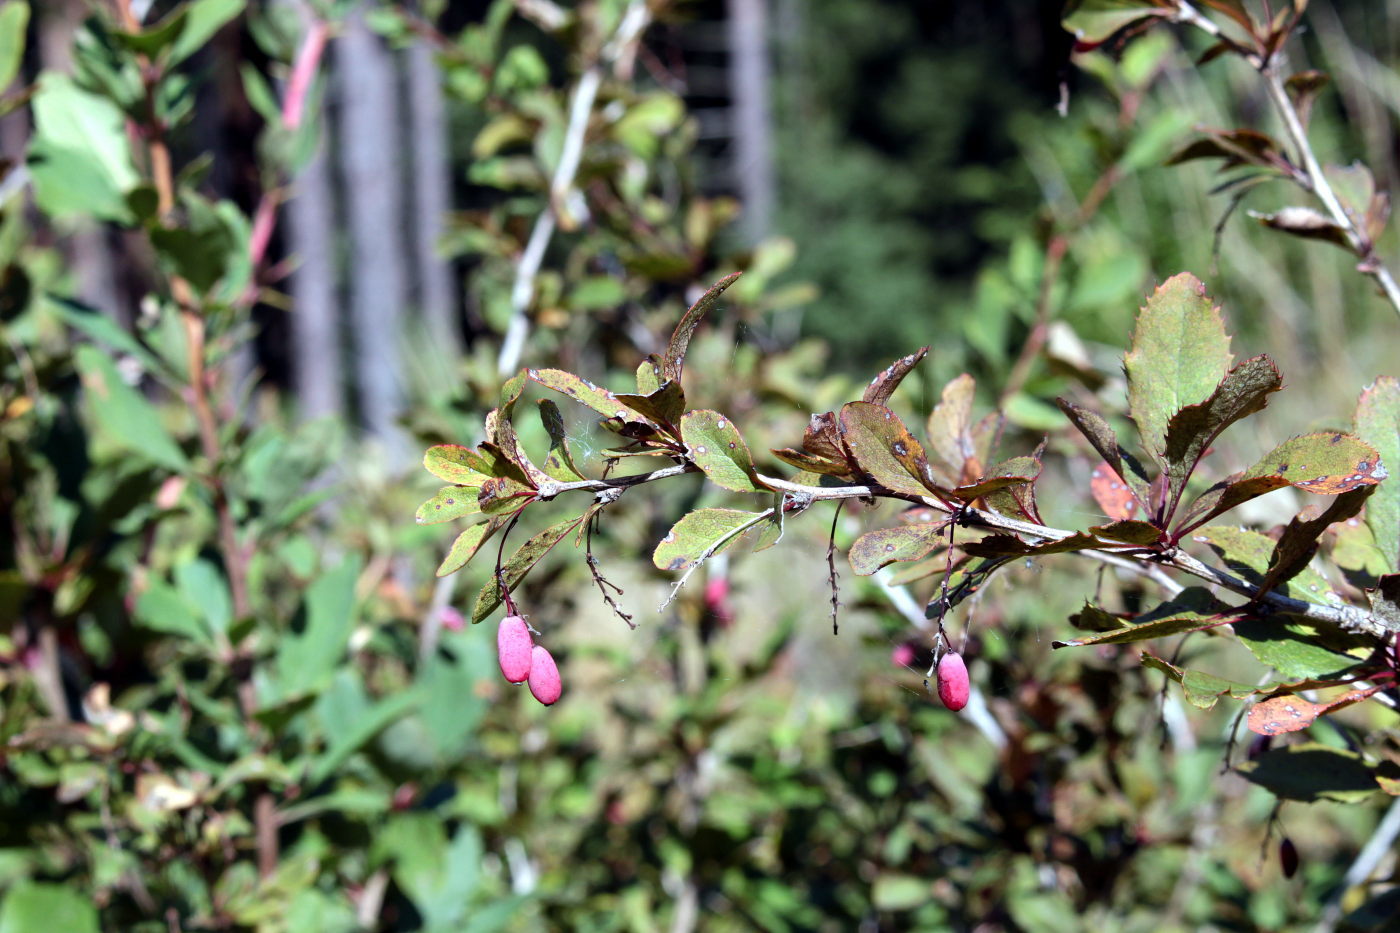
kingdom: Plantae
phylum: Tracheophyta
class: Magnoliopsida
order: Ranunculales
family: Berberidaceae
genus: Berberis
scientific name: Berberis vulgaris
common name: Barberry
